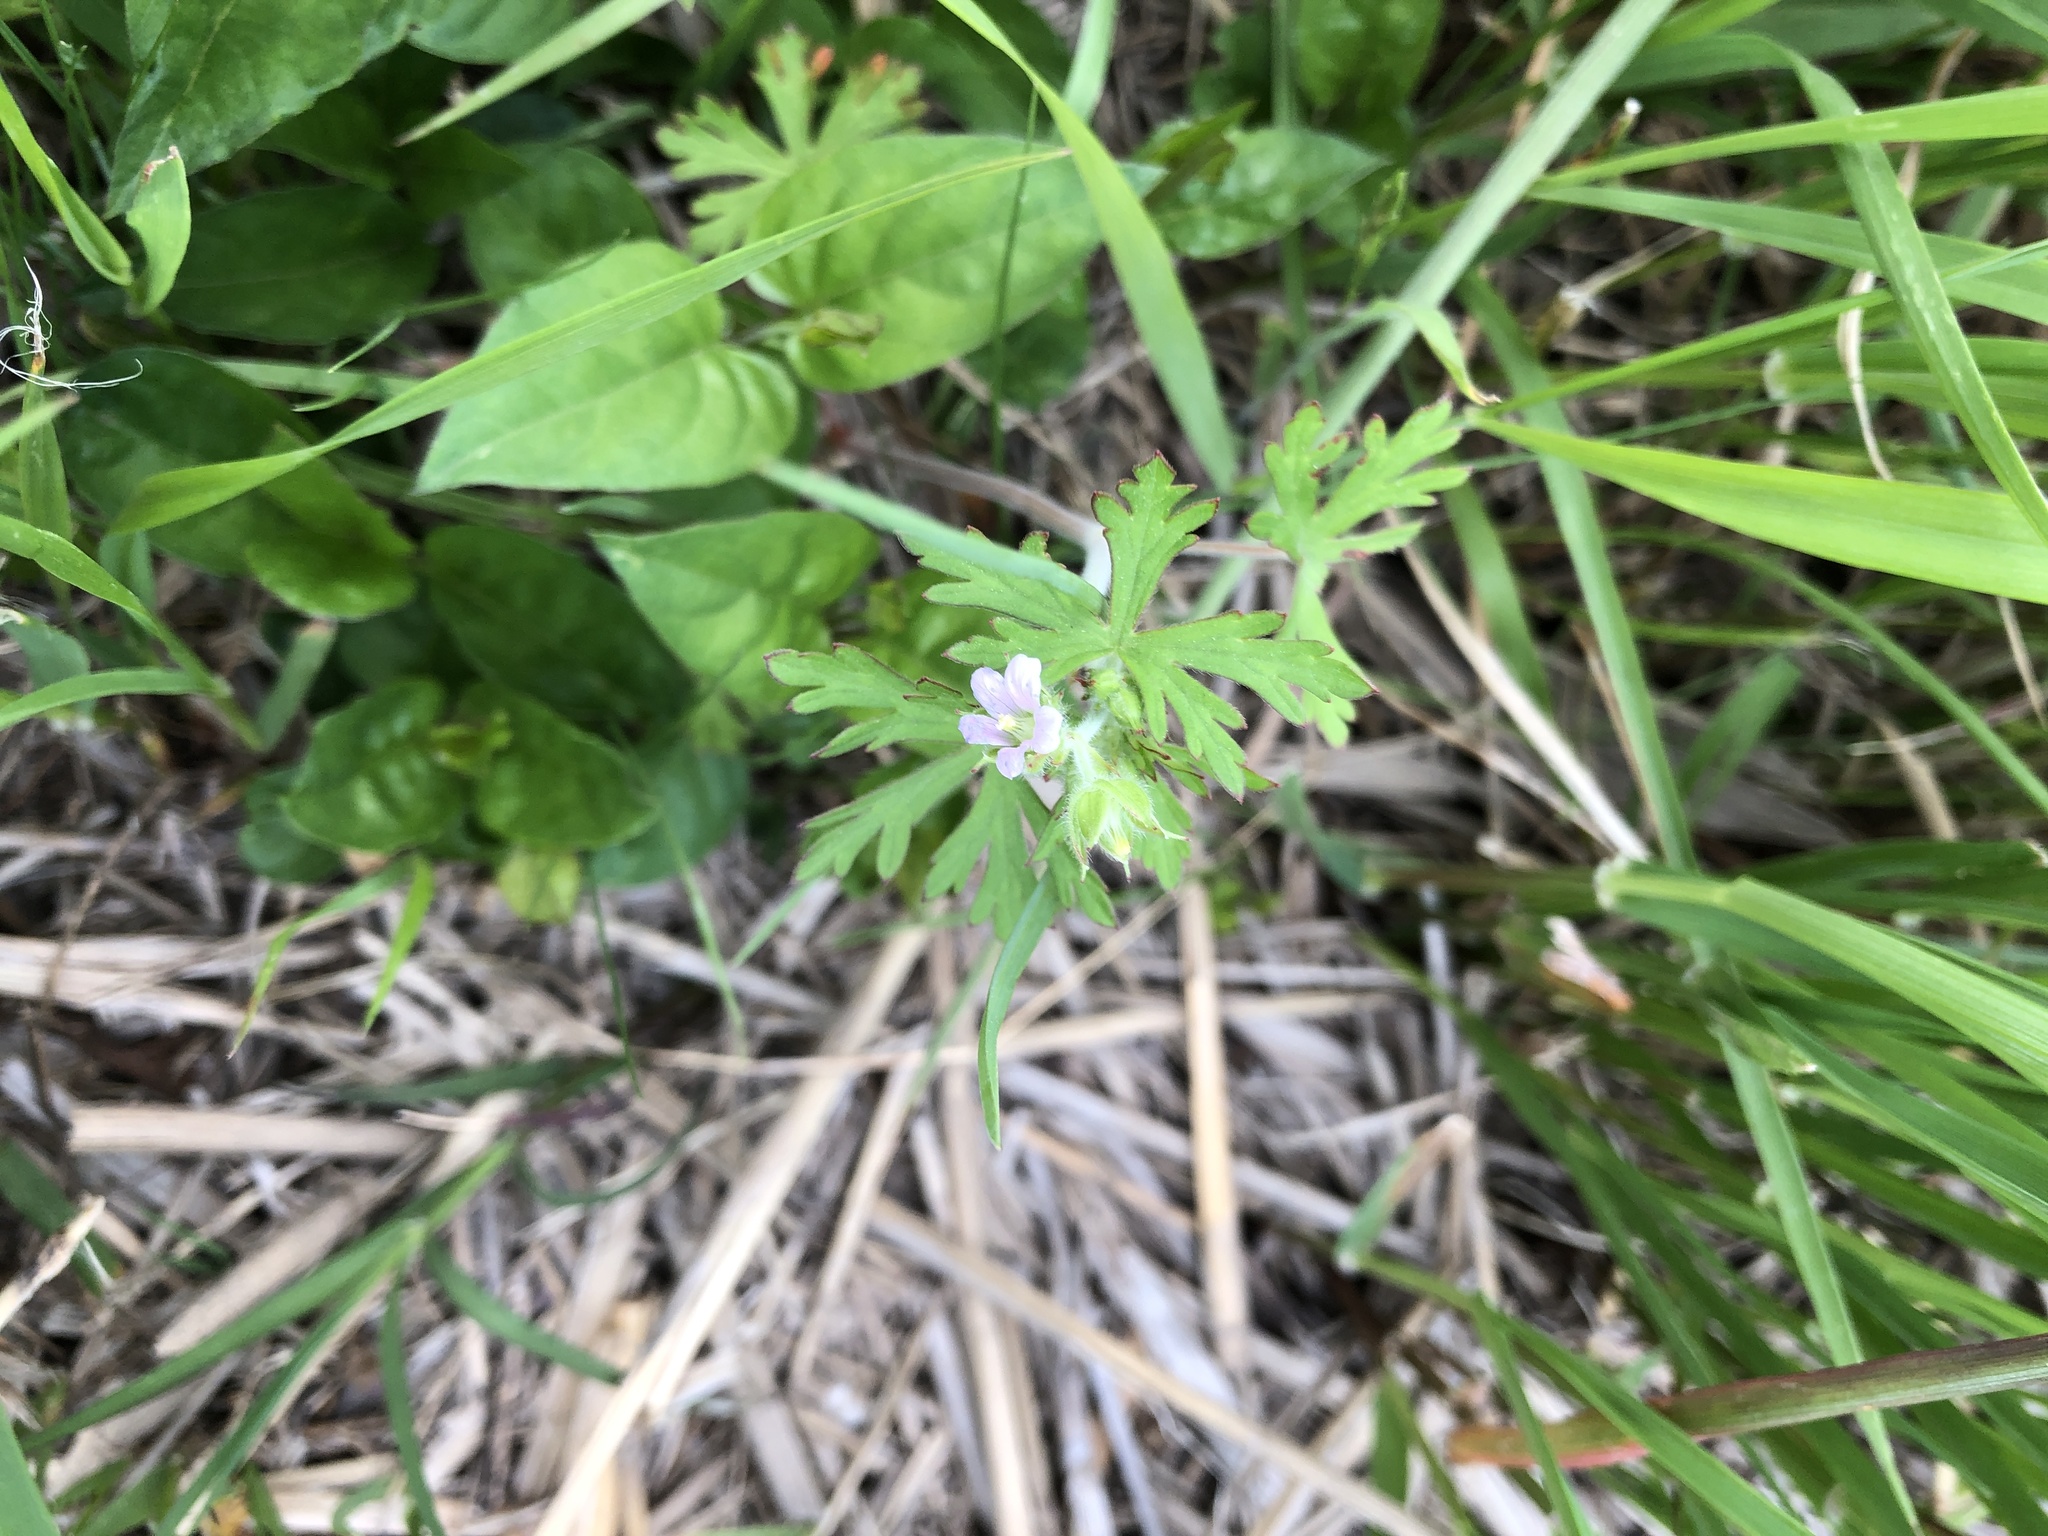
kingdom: Plantae
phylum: Tracheophyta
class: Magnoliopsida
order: Geraniales
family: Geraniaceae
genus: Geranium
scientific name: Geranium carolinianum
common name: Carolina crane's-bill
